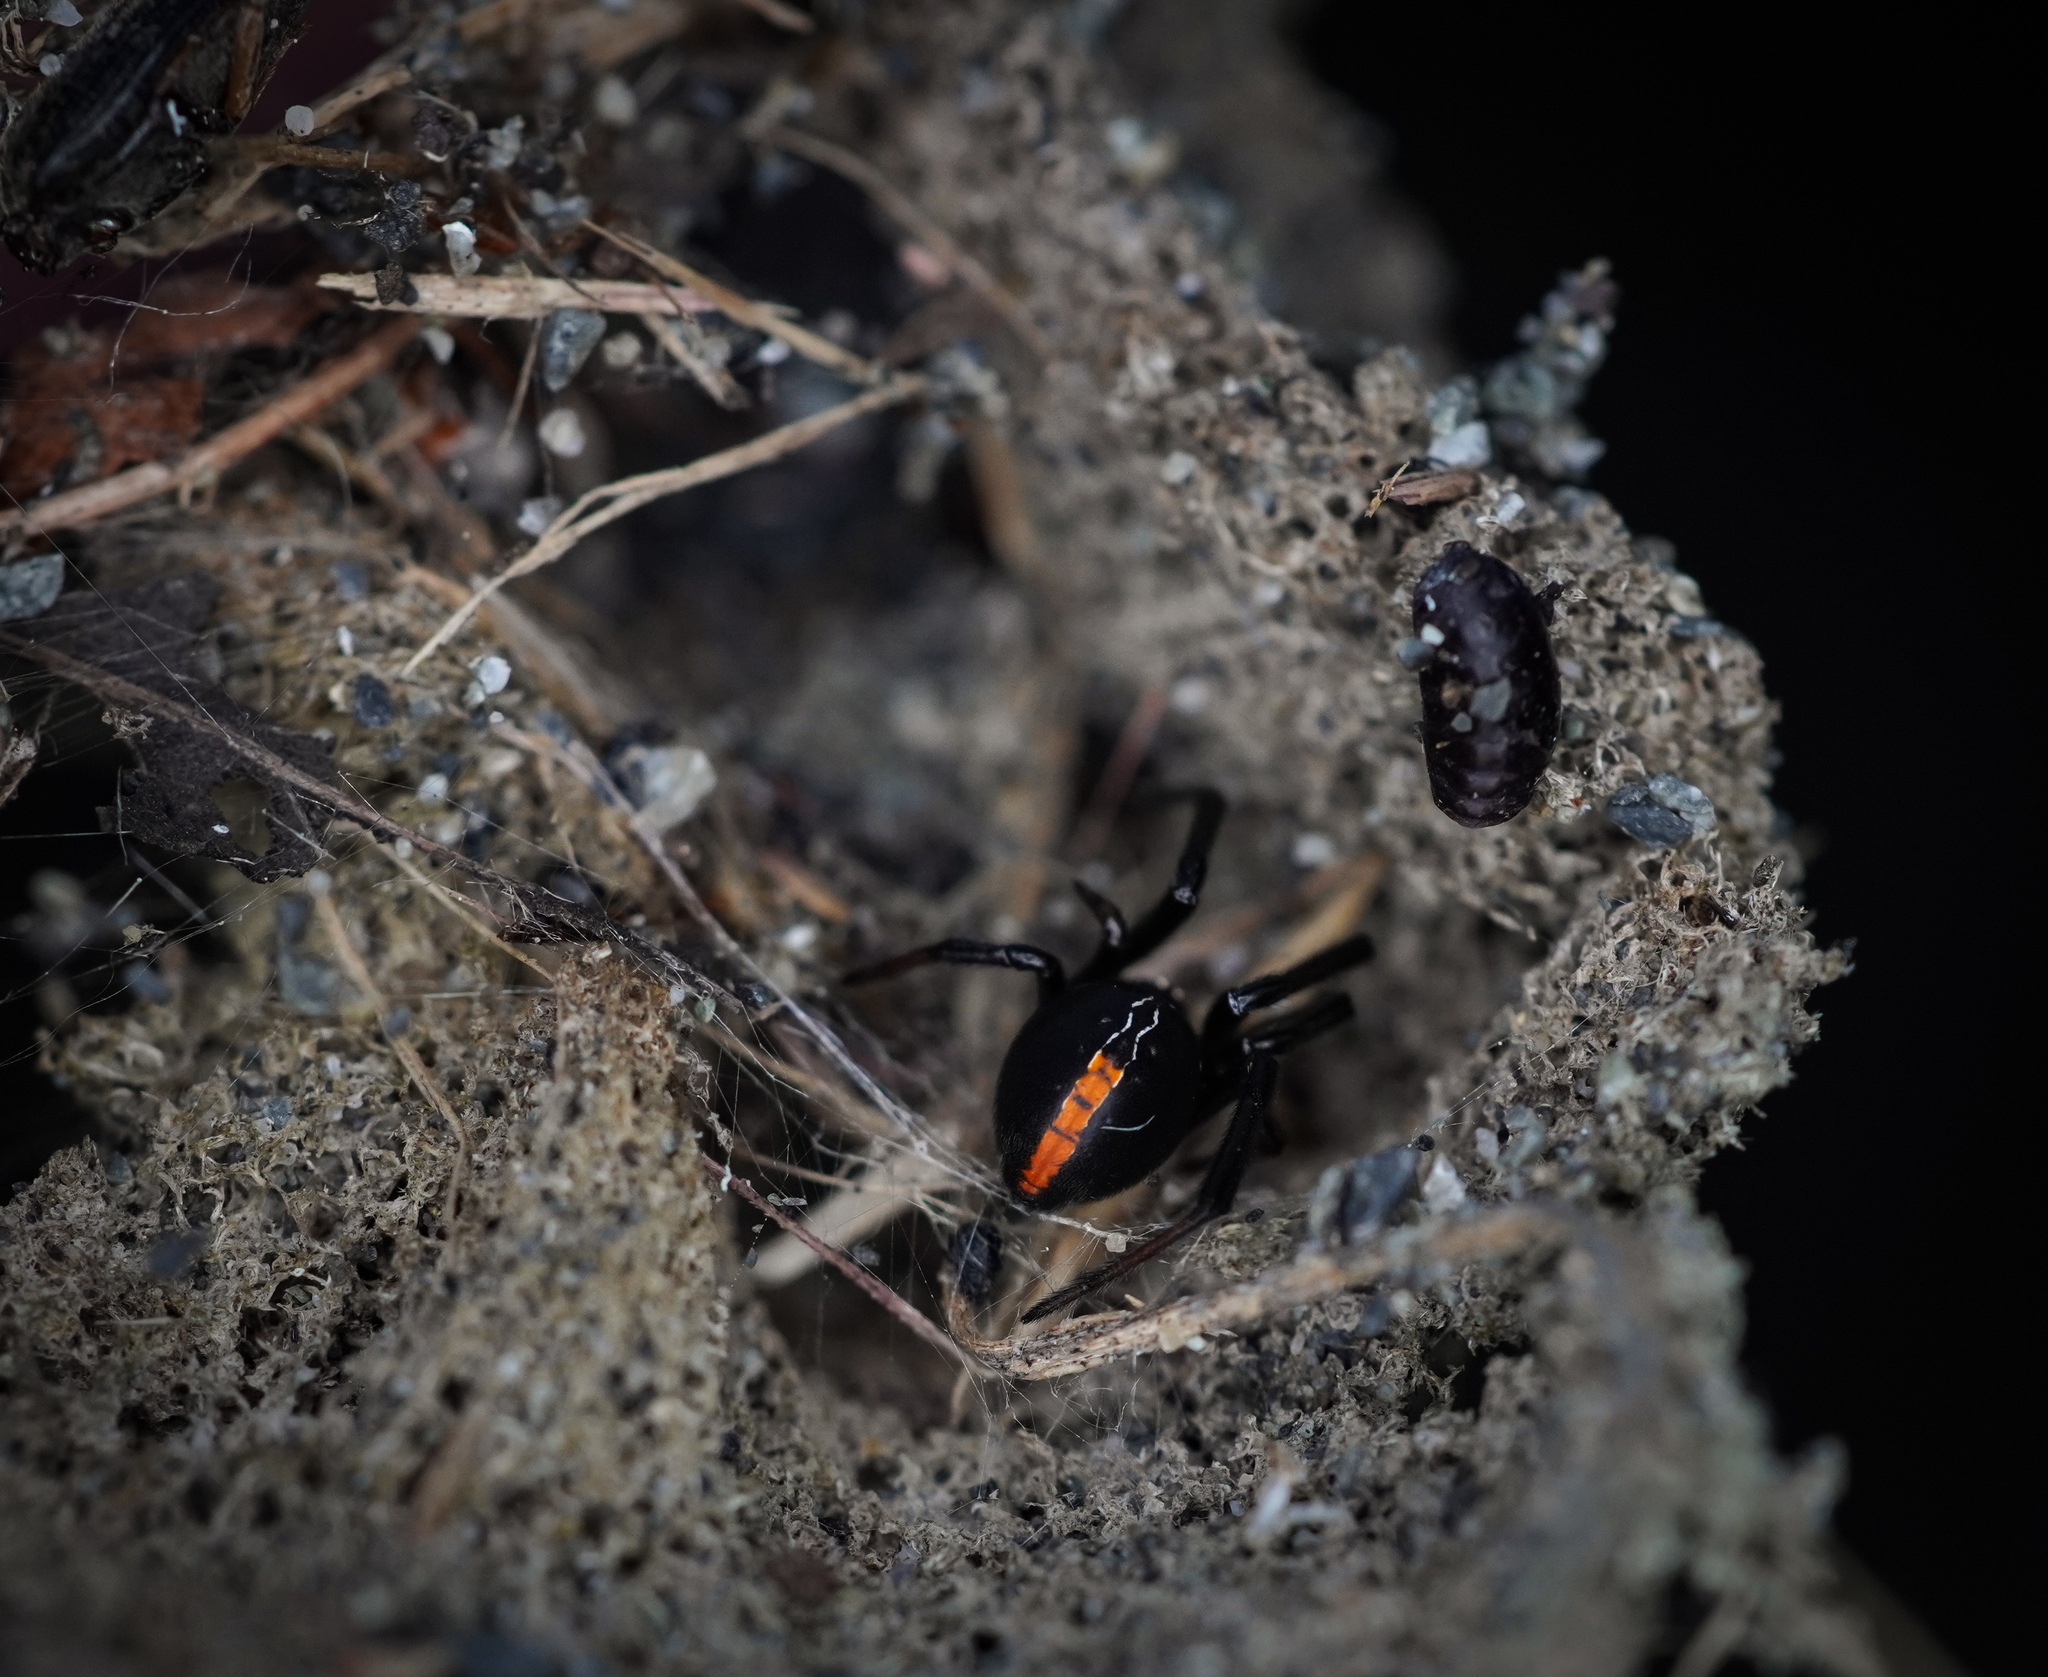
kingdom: Animalia
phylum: Arthropoda
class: Arachnida
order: Araneae
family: Theridiidae
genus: Latrodectus
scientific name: Latrodectus katipo
